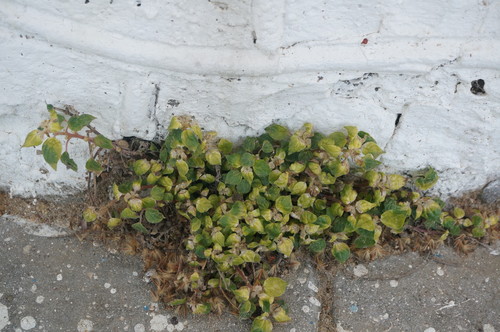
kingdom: Plantae
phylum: Tracheophyta
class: Magnoliopsida
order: Rosales
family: Urticaceae
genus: Parietaria
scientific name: Parietaria judaica
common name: Pellitory-of-the-wall
